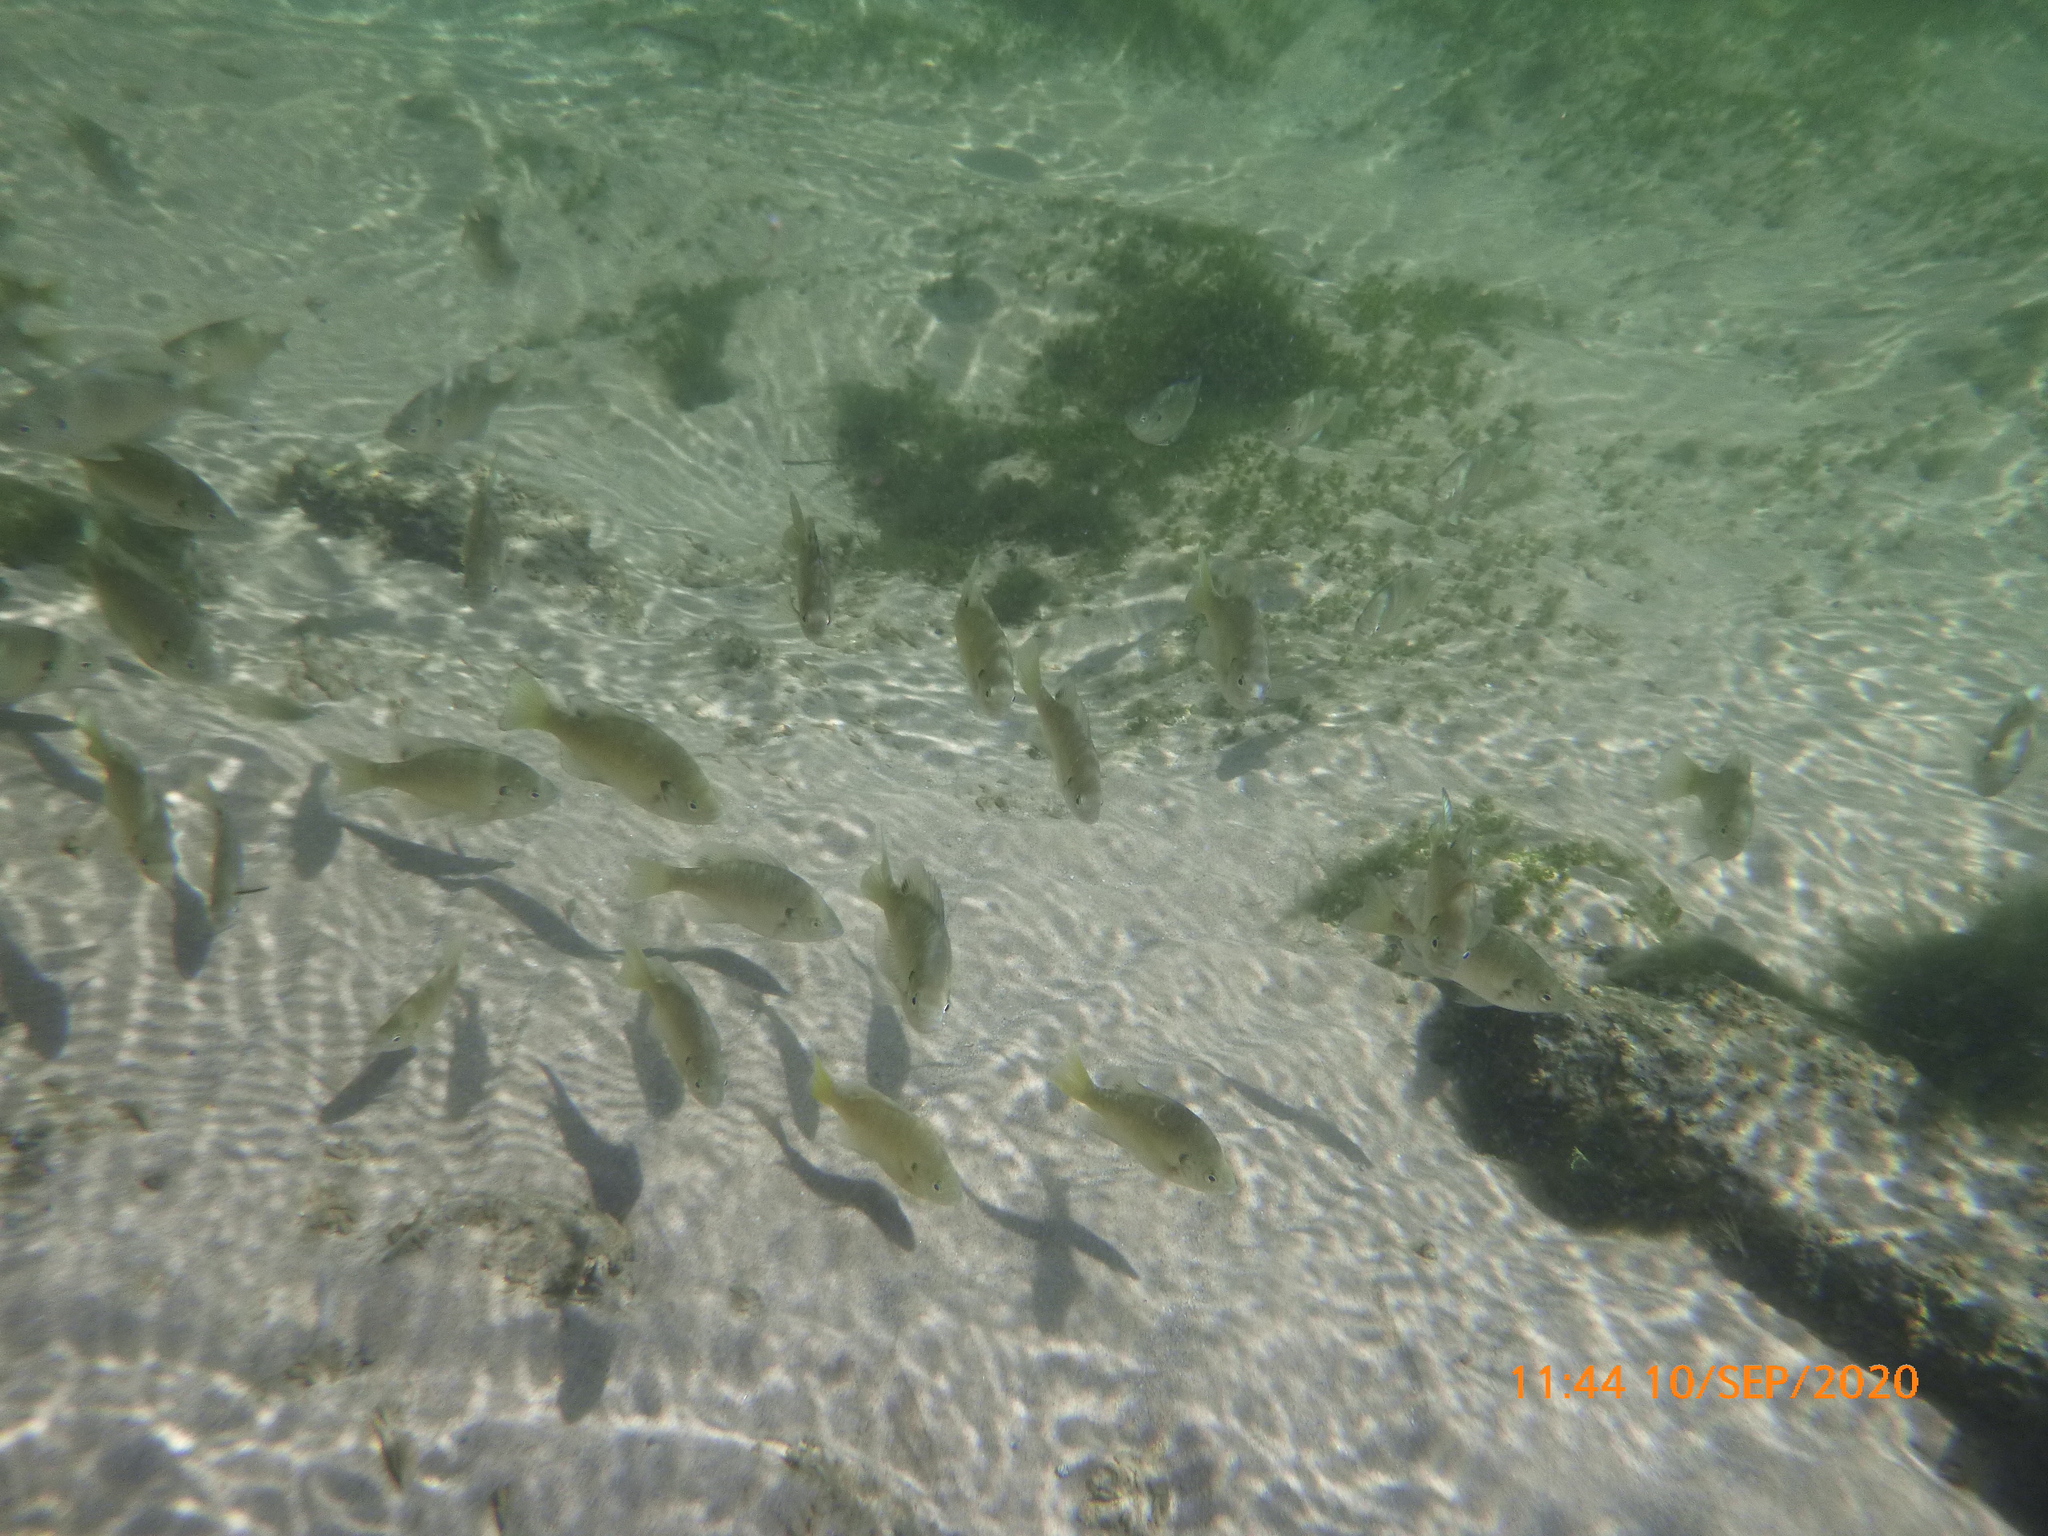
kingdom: Animalia
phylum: Chordata
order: Perciformes
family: Centrarchidae
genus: Lepomis
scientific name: Lepomis macrochirus
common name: Bluegill
